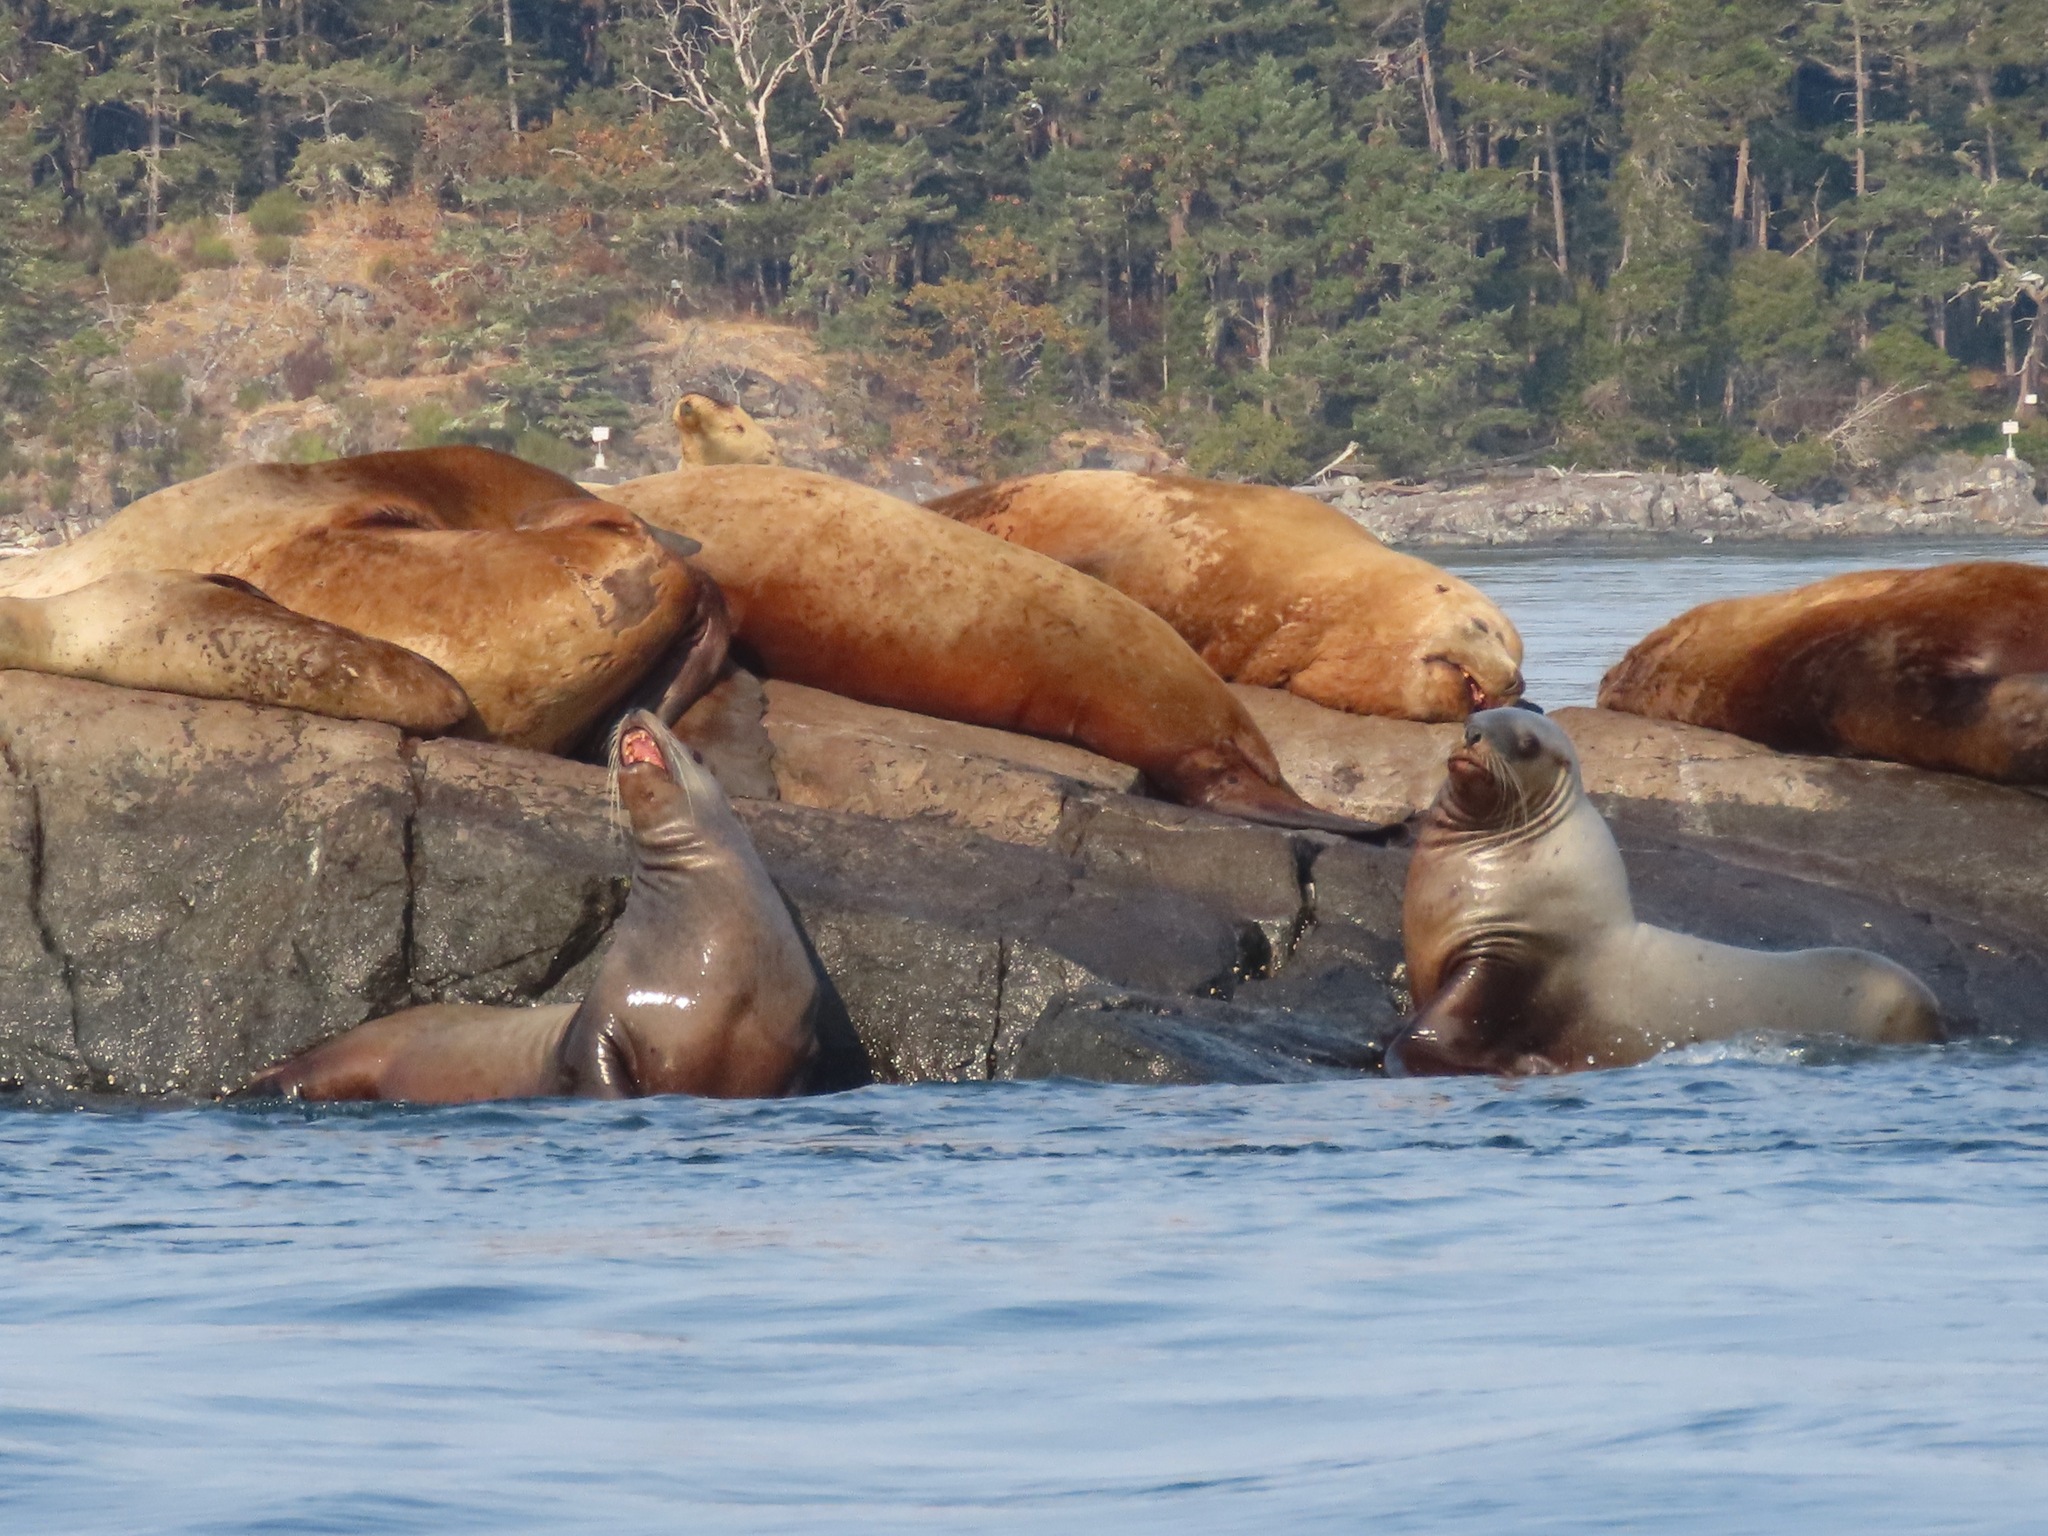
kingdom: Animalia
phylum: Chordata
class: Mammalia
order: Carnivora
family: Otariidae
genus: Eumetopias
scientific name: Eumetopias jubatus
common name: Steller sea lion
